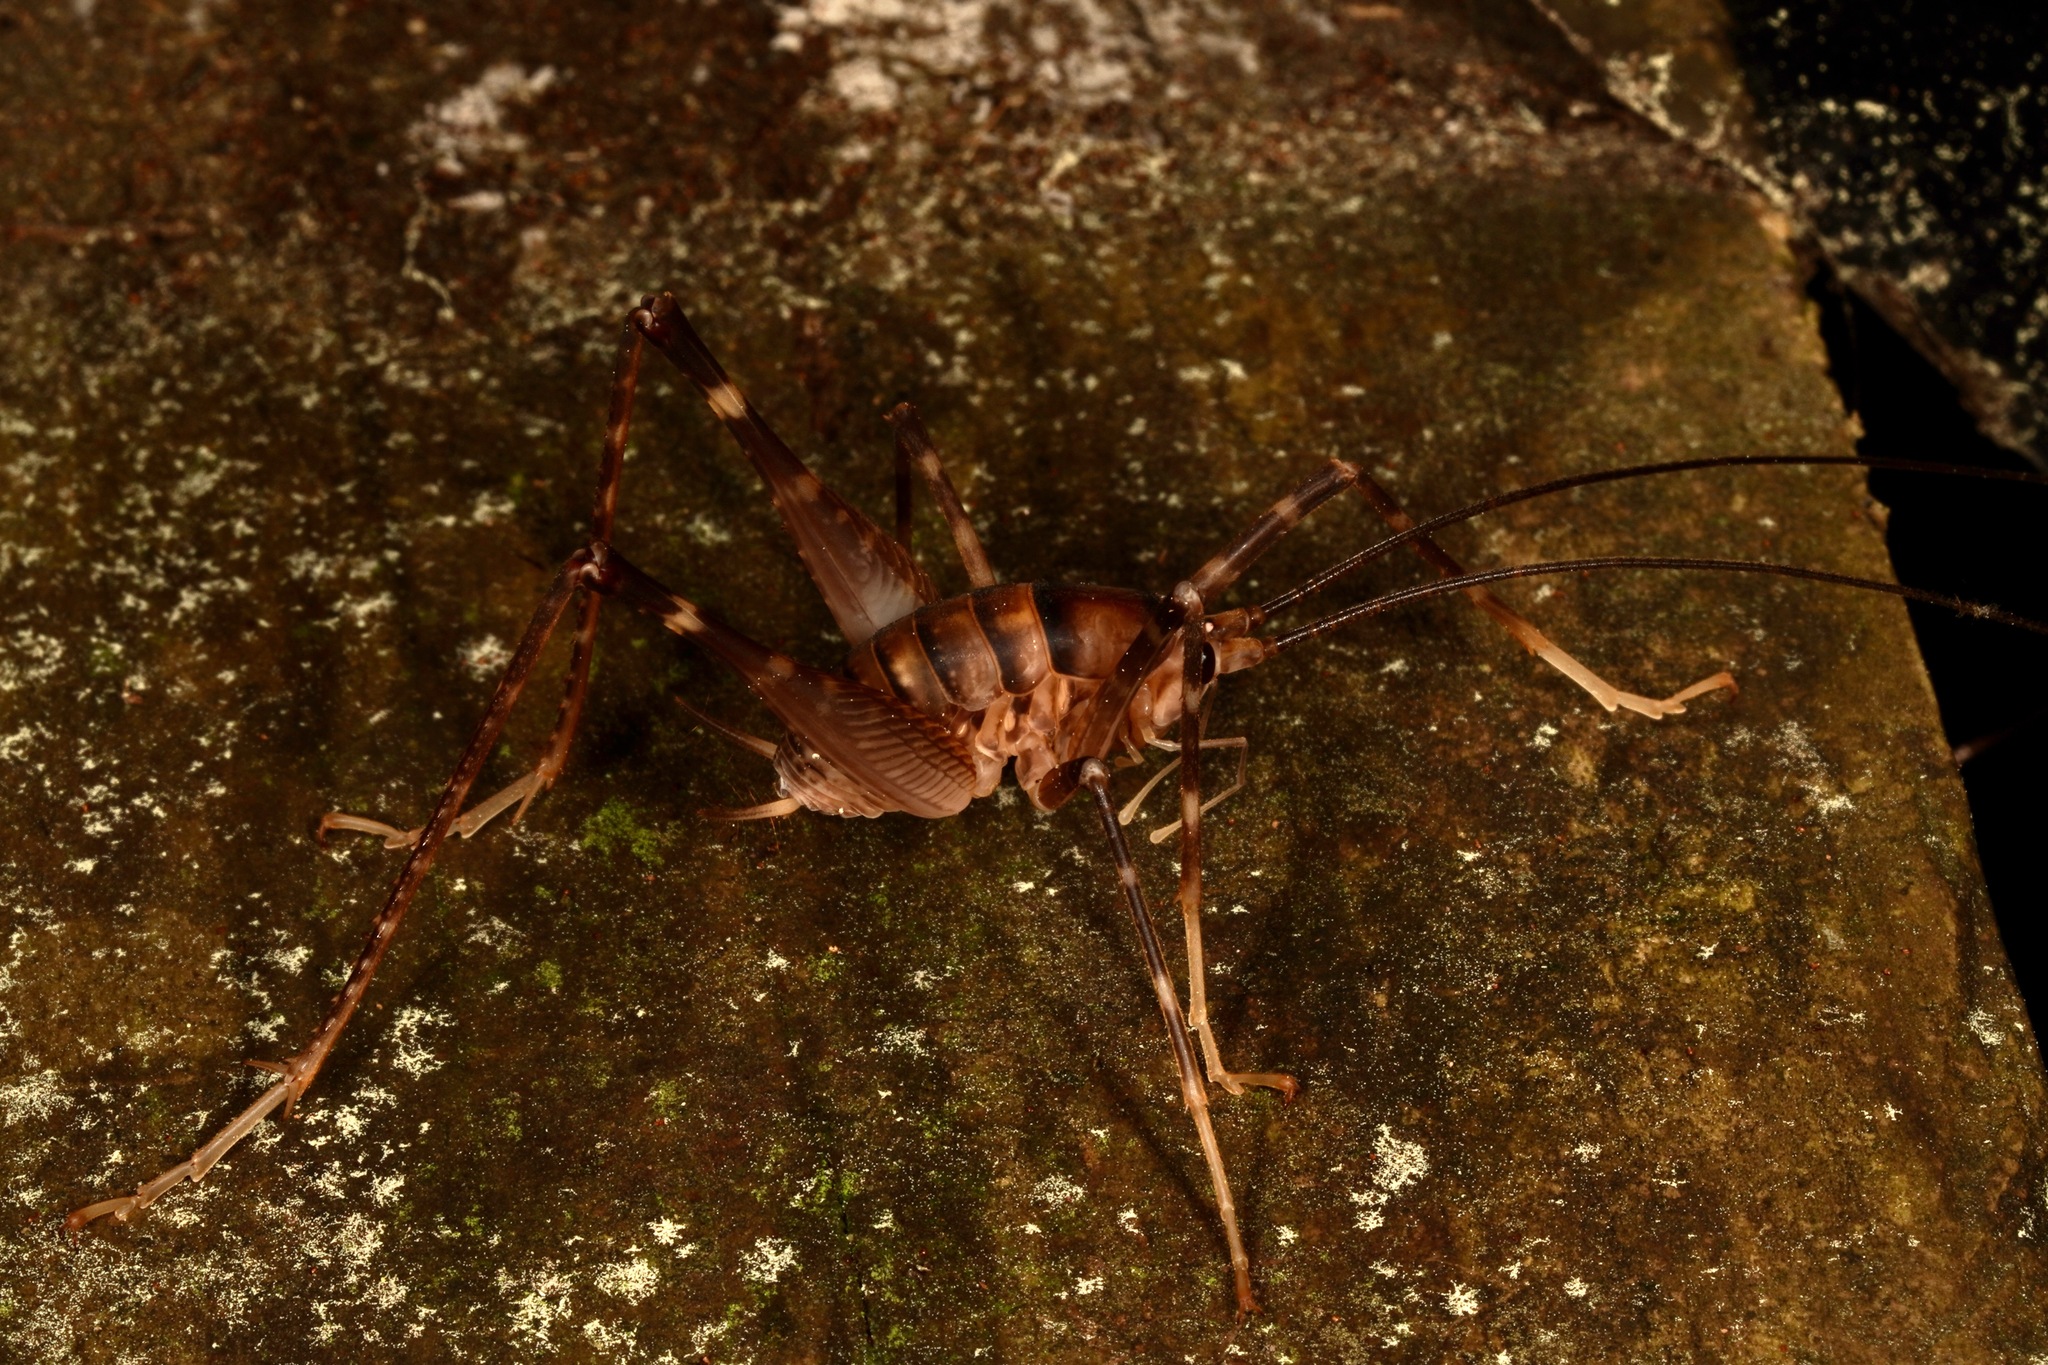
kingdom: Animalia
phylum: Arthropoda
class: Insecta
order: Orthoptera
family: Rhaphidophoridae
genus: Pachyrhamma
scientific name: Pachyrhamma edwardsii
